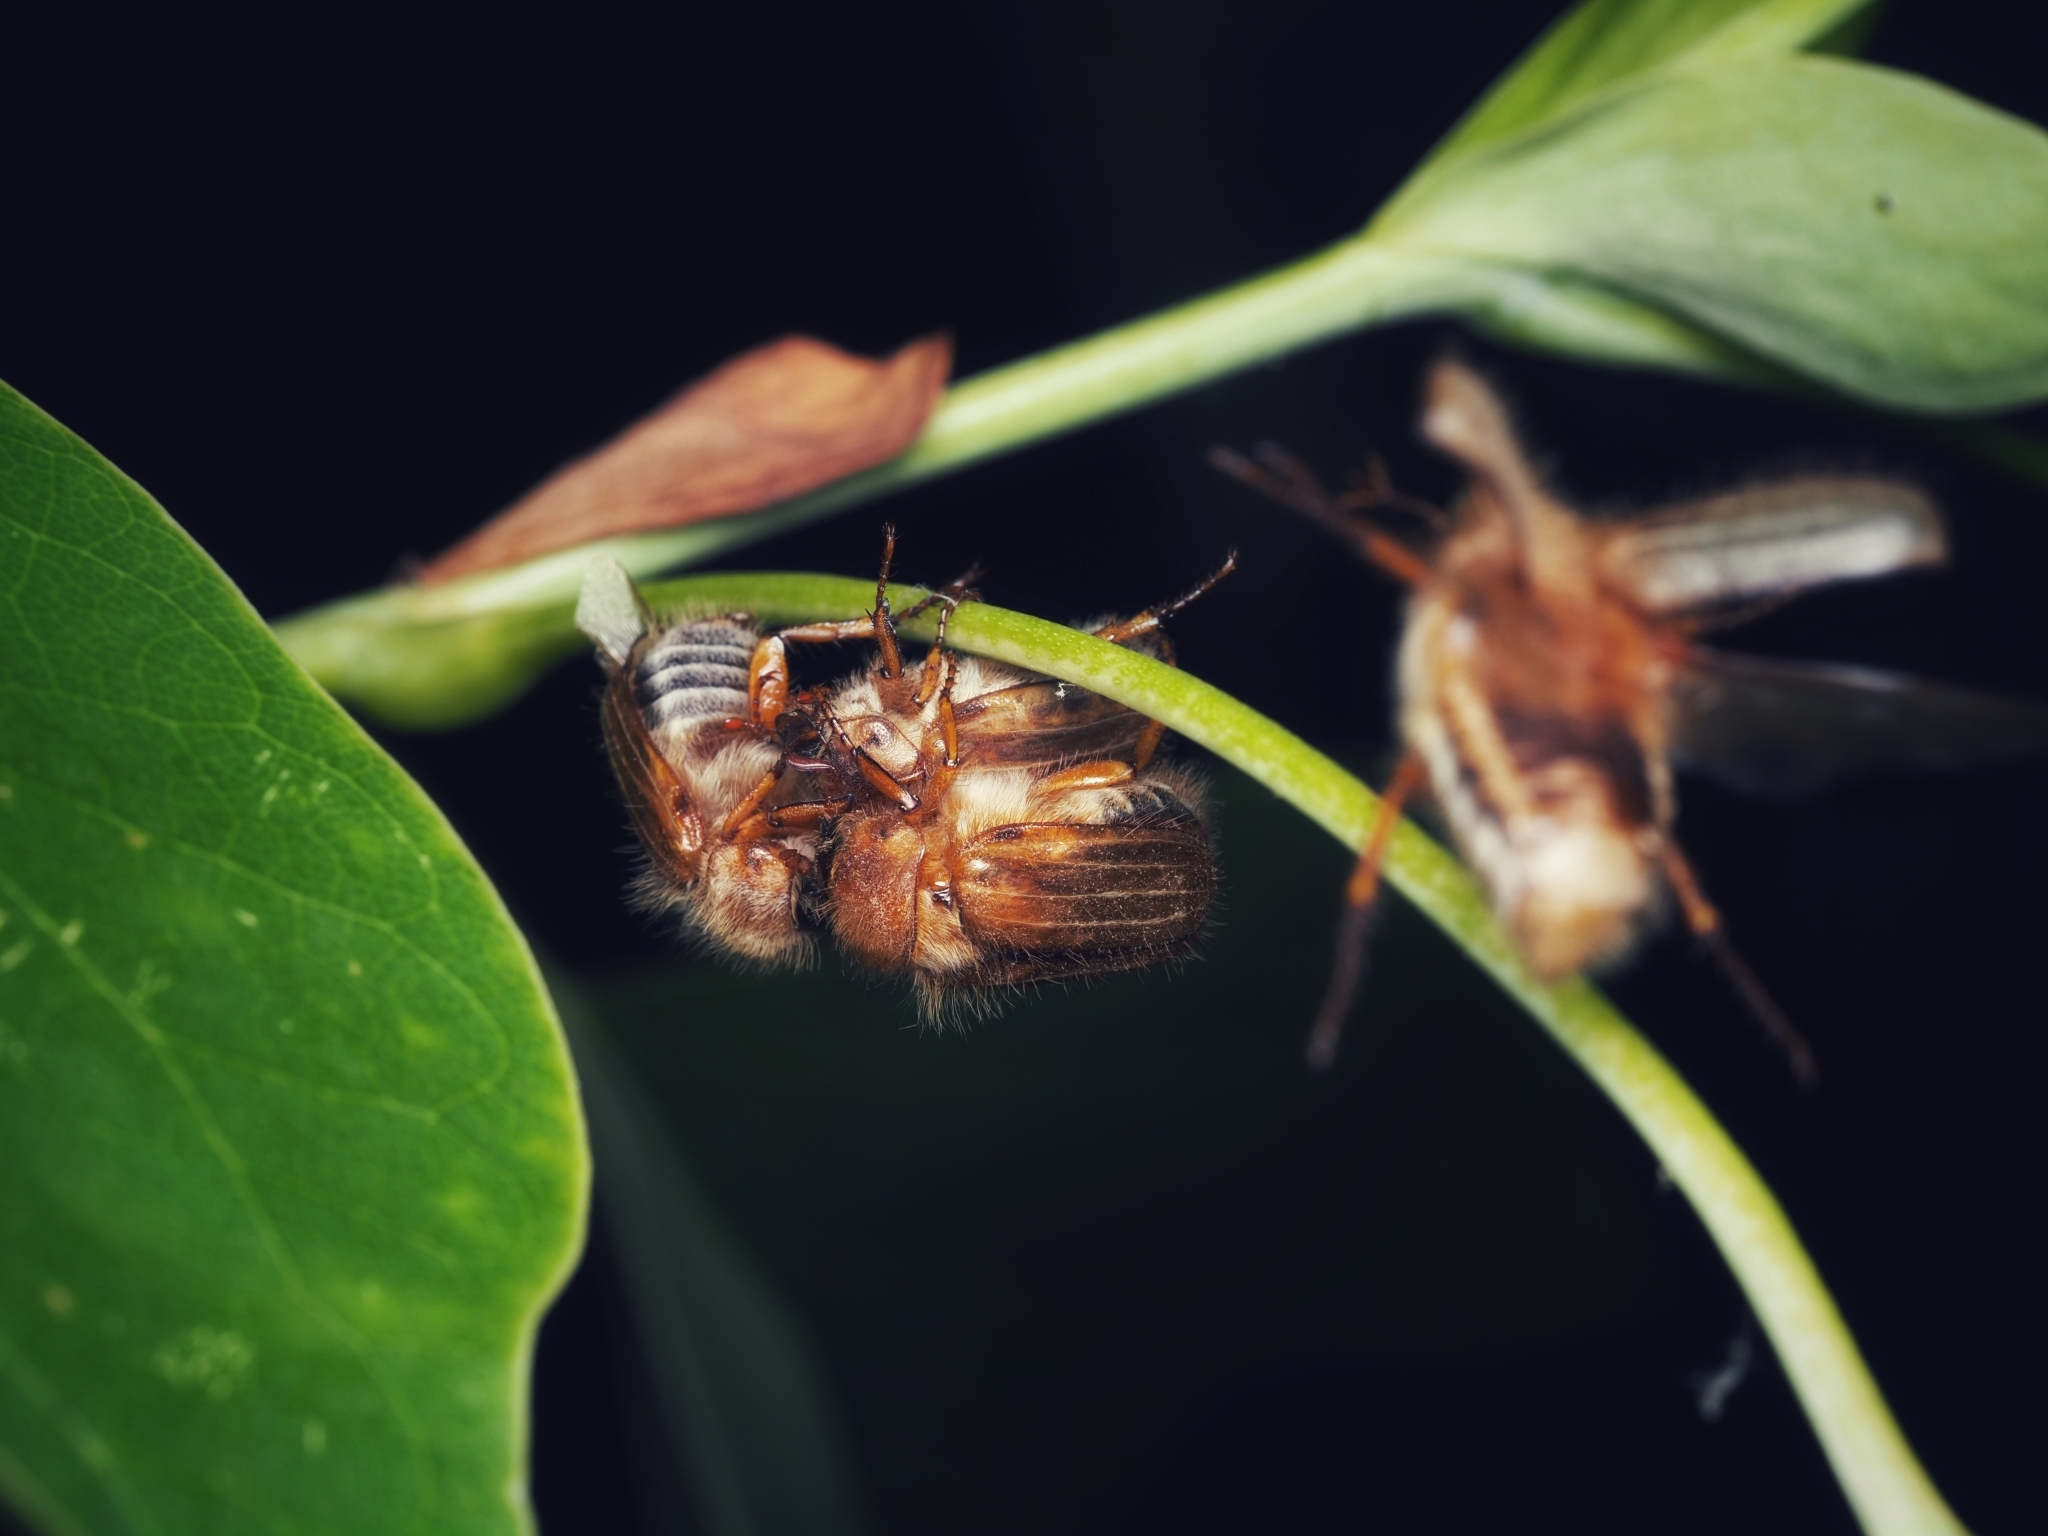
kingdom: Animalia
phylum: Arthropoda
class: Insecta
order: Coleoptera
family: Scarabaeidae
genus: Amphimallon
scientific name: Amphimallon solstitiale
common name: Summer chafer
